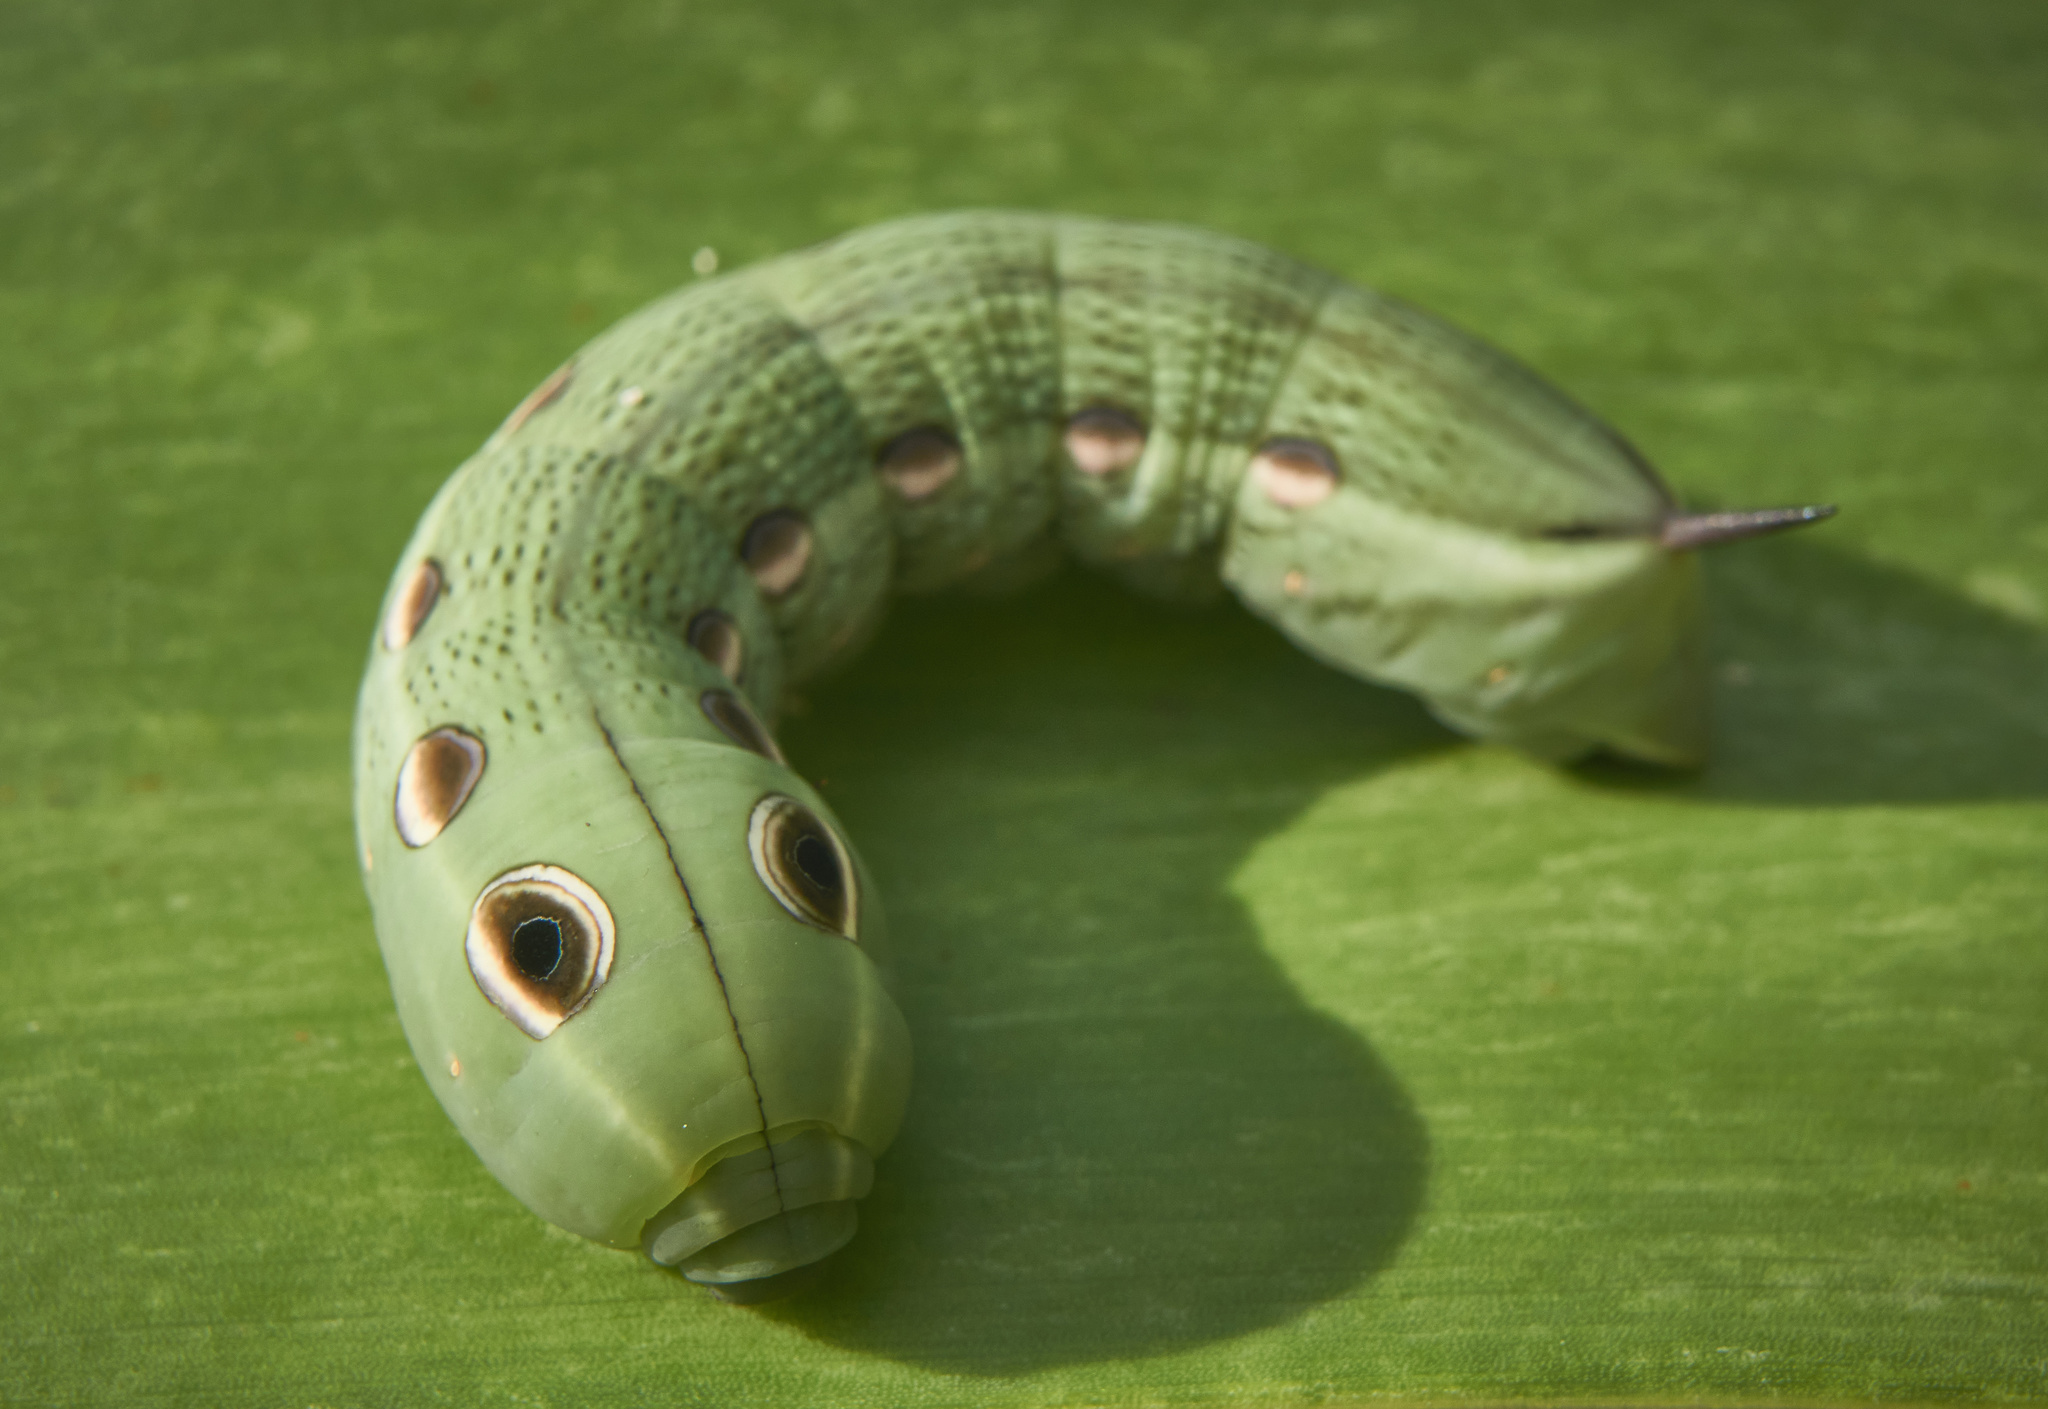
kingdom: Animalia
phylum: Arthropoda
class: Insecta
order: Lepidoptera
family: Sphingidae
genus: Xylophanes
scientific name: Xylophanes tersa
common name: Tersa sphinx
